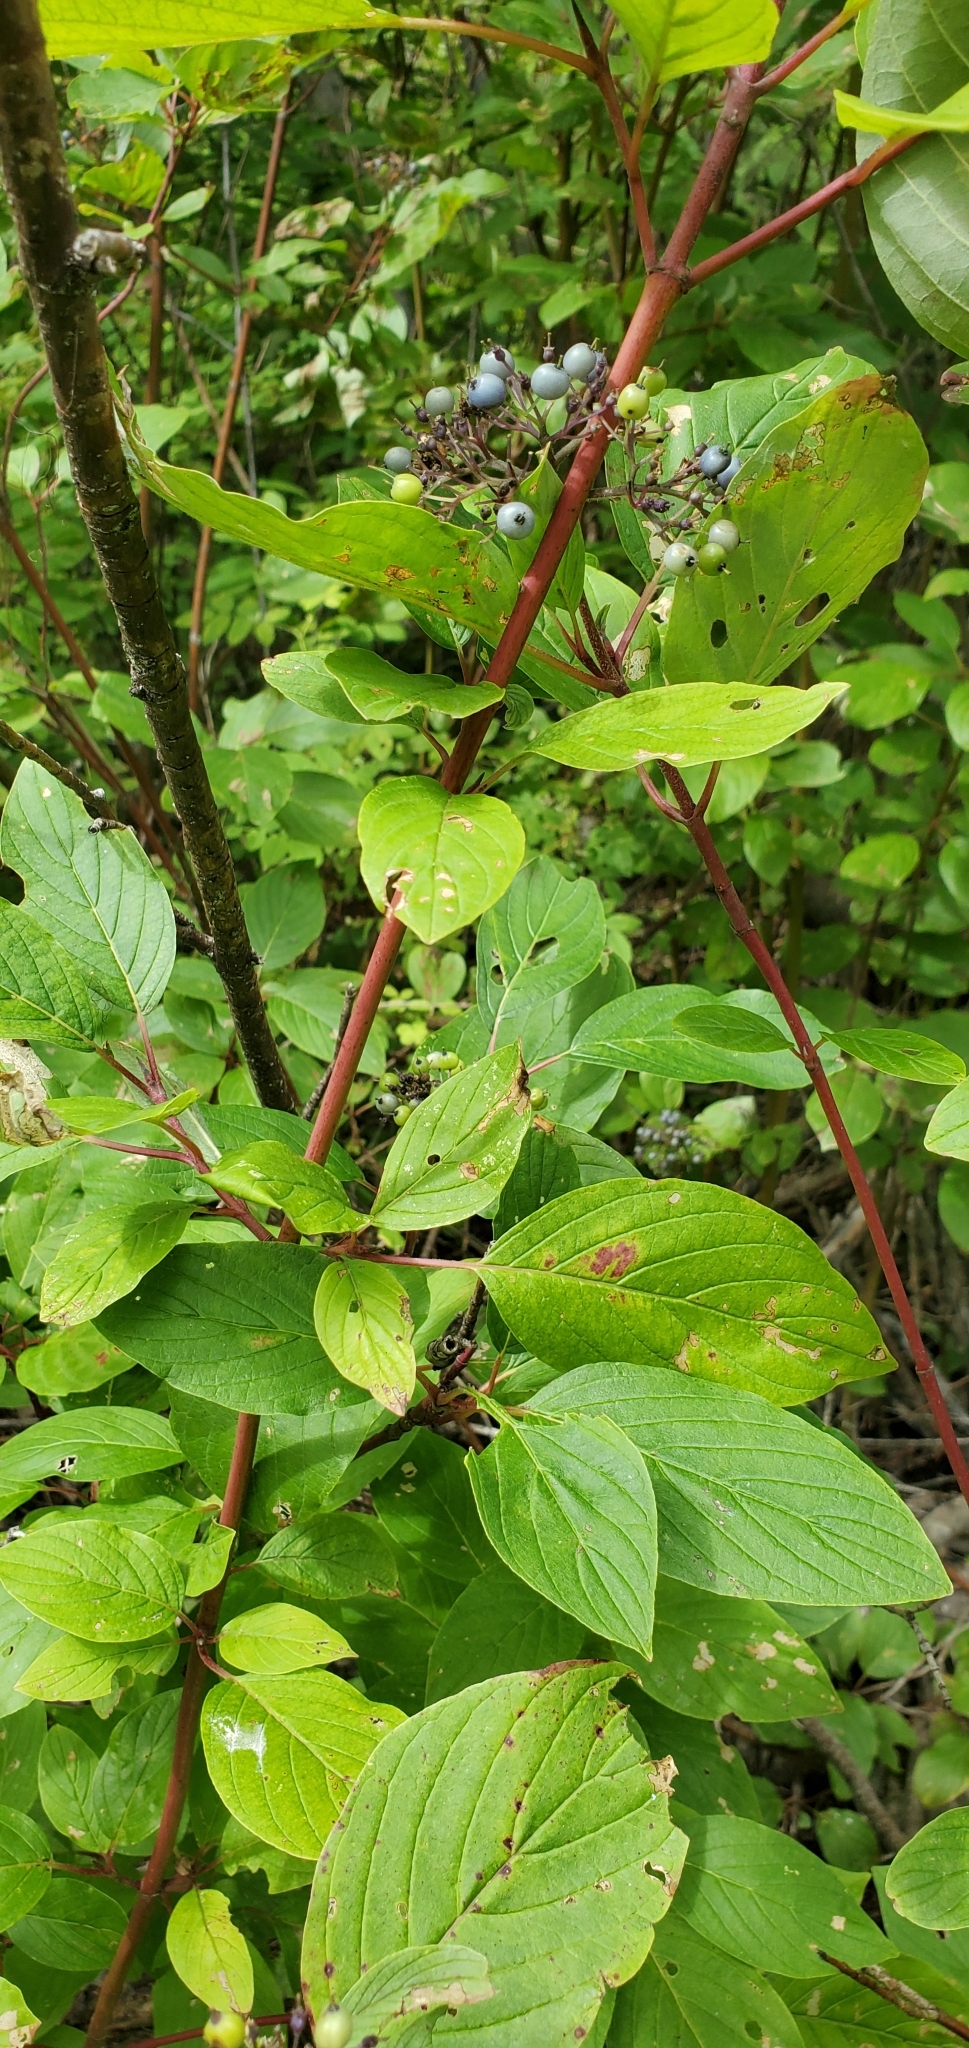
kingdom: Plantae
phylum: Tracheophyta
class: Magnoliopsida
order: Cornales
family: Cornaceae
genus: Cornus
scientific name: Cornus sericea
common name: Red-osier dogwood
